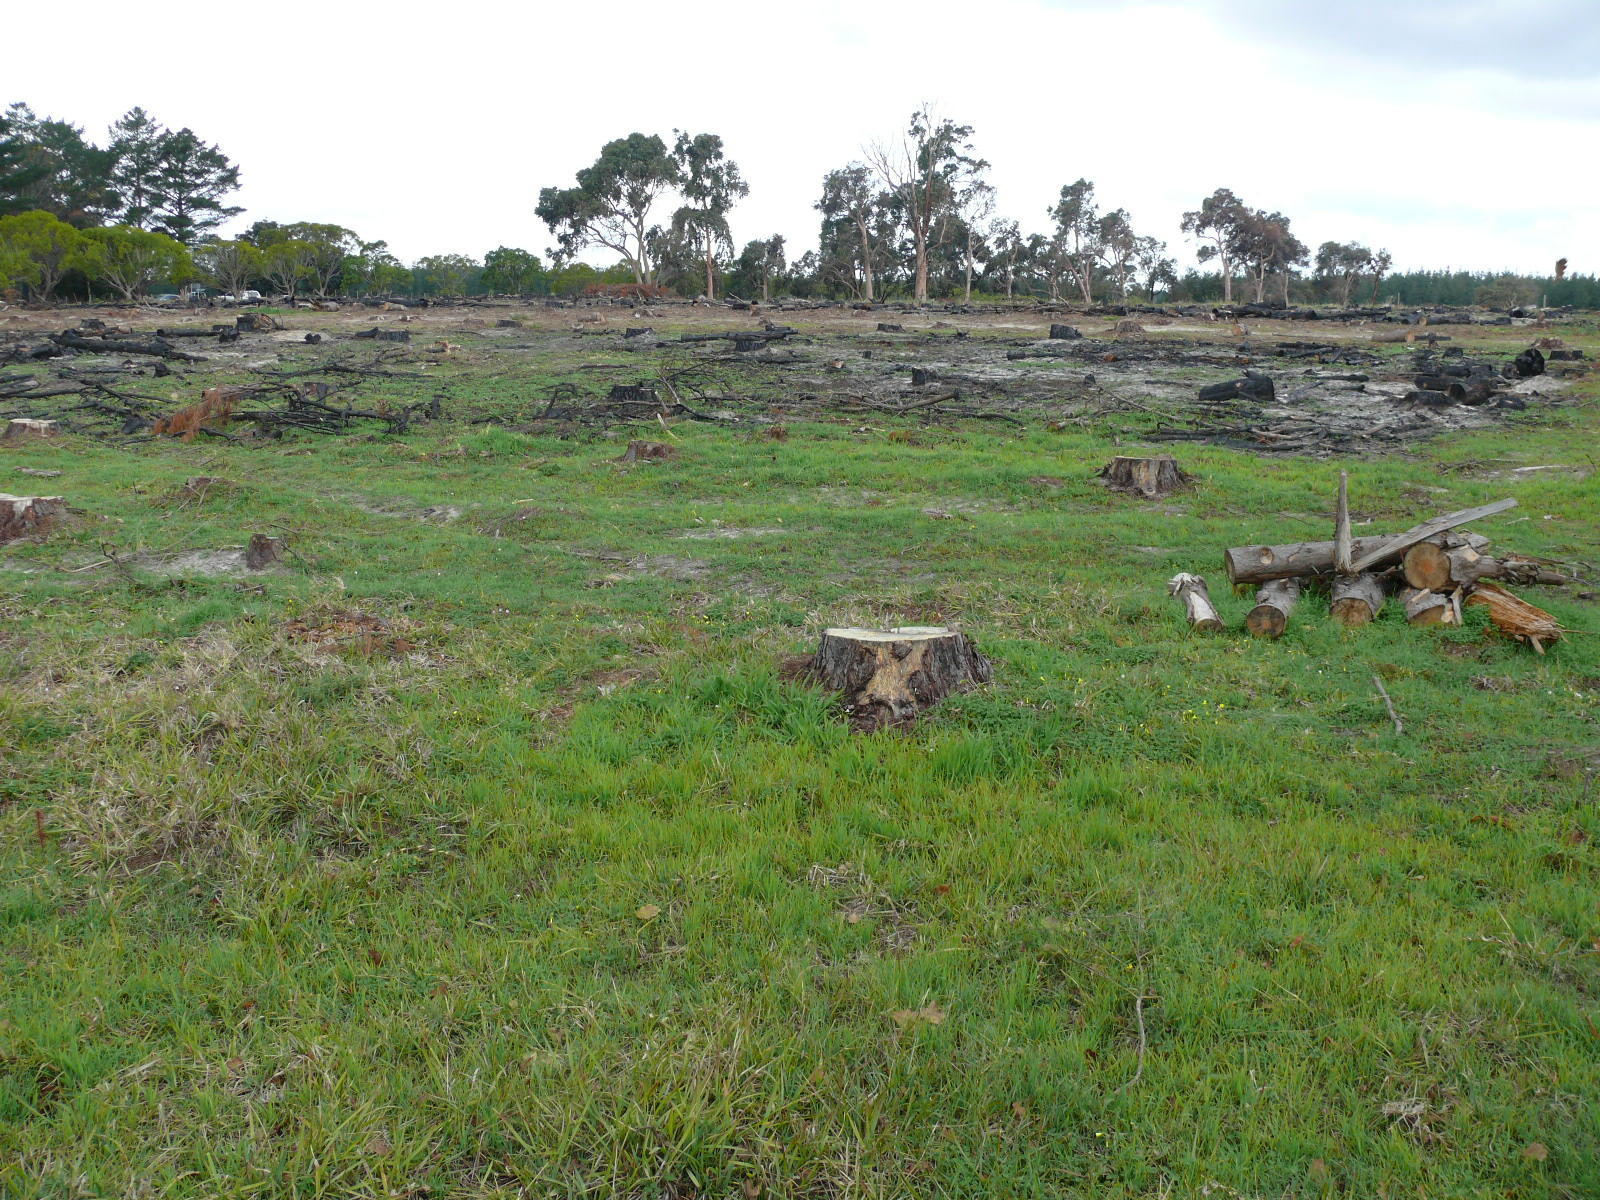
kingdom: Plantae
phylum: Tracheophyta
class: Liliopsida
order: Poales
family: Poaceae
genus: Cenchrus
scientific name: Cenchrus clandestinus
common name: Kikuyugrass
